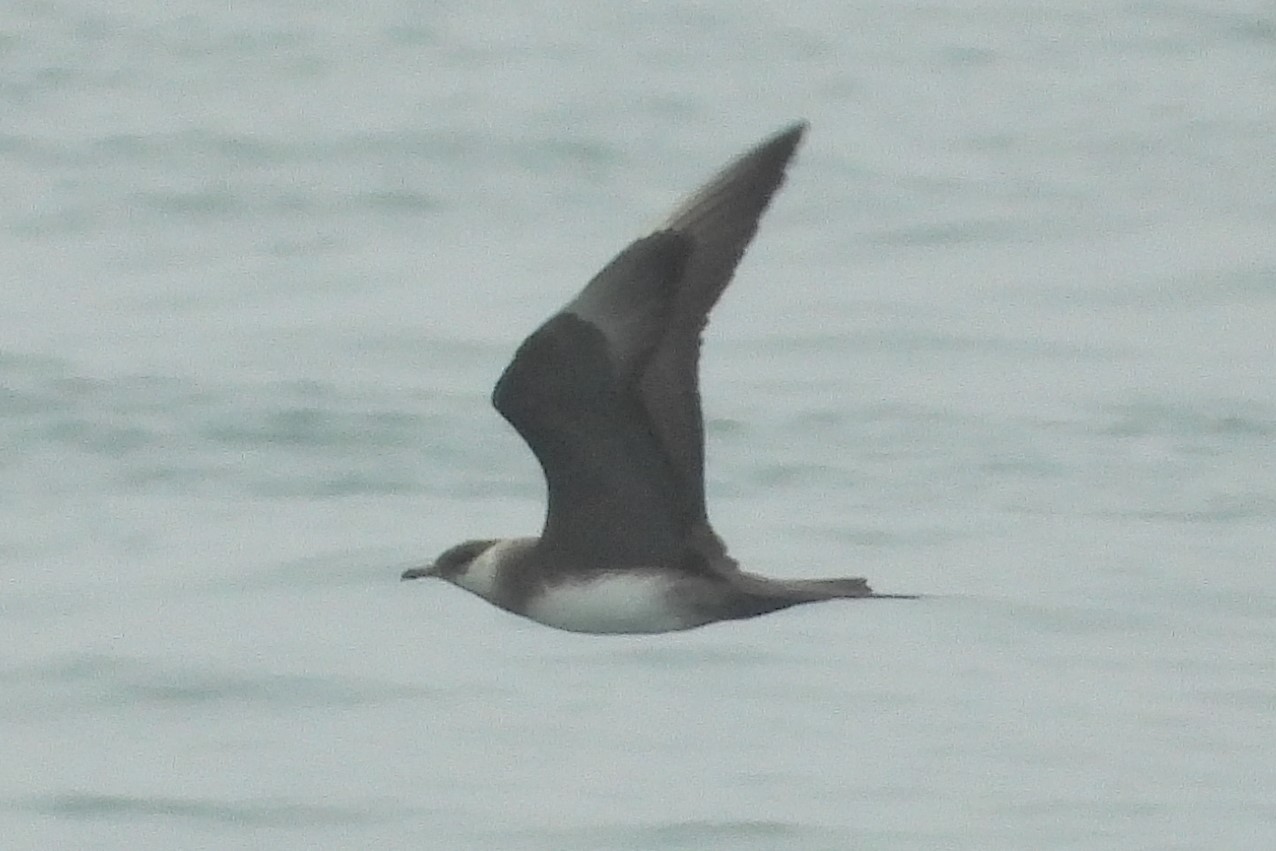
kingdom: Animalia
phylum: Chordata
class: Aves
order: Charadriiformes
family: Stercorariidae
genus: Stercorarius
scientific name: Stercorarius parasiticus
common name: Parasitic jaeger
